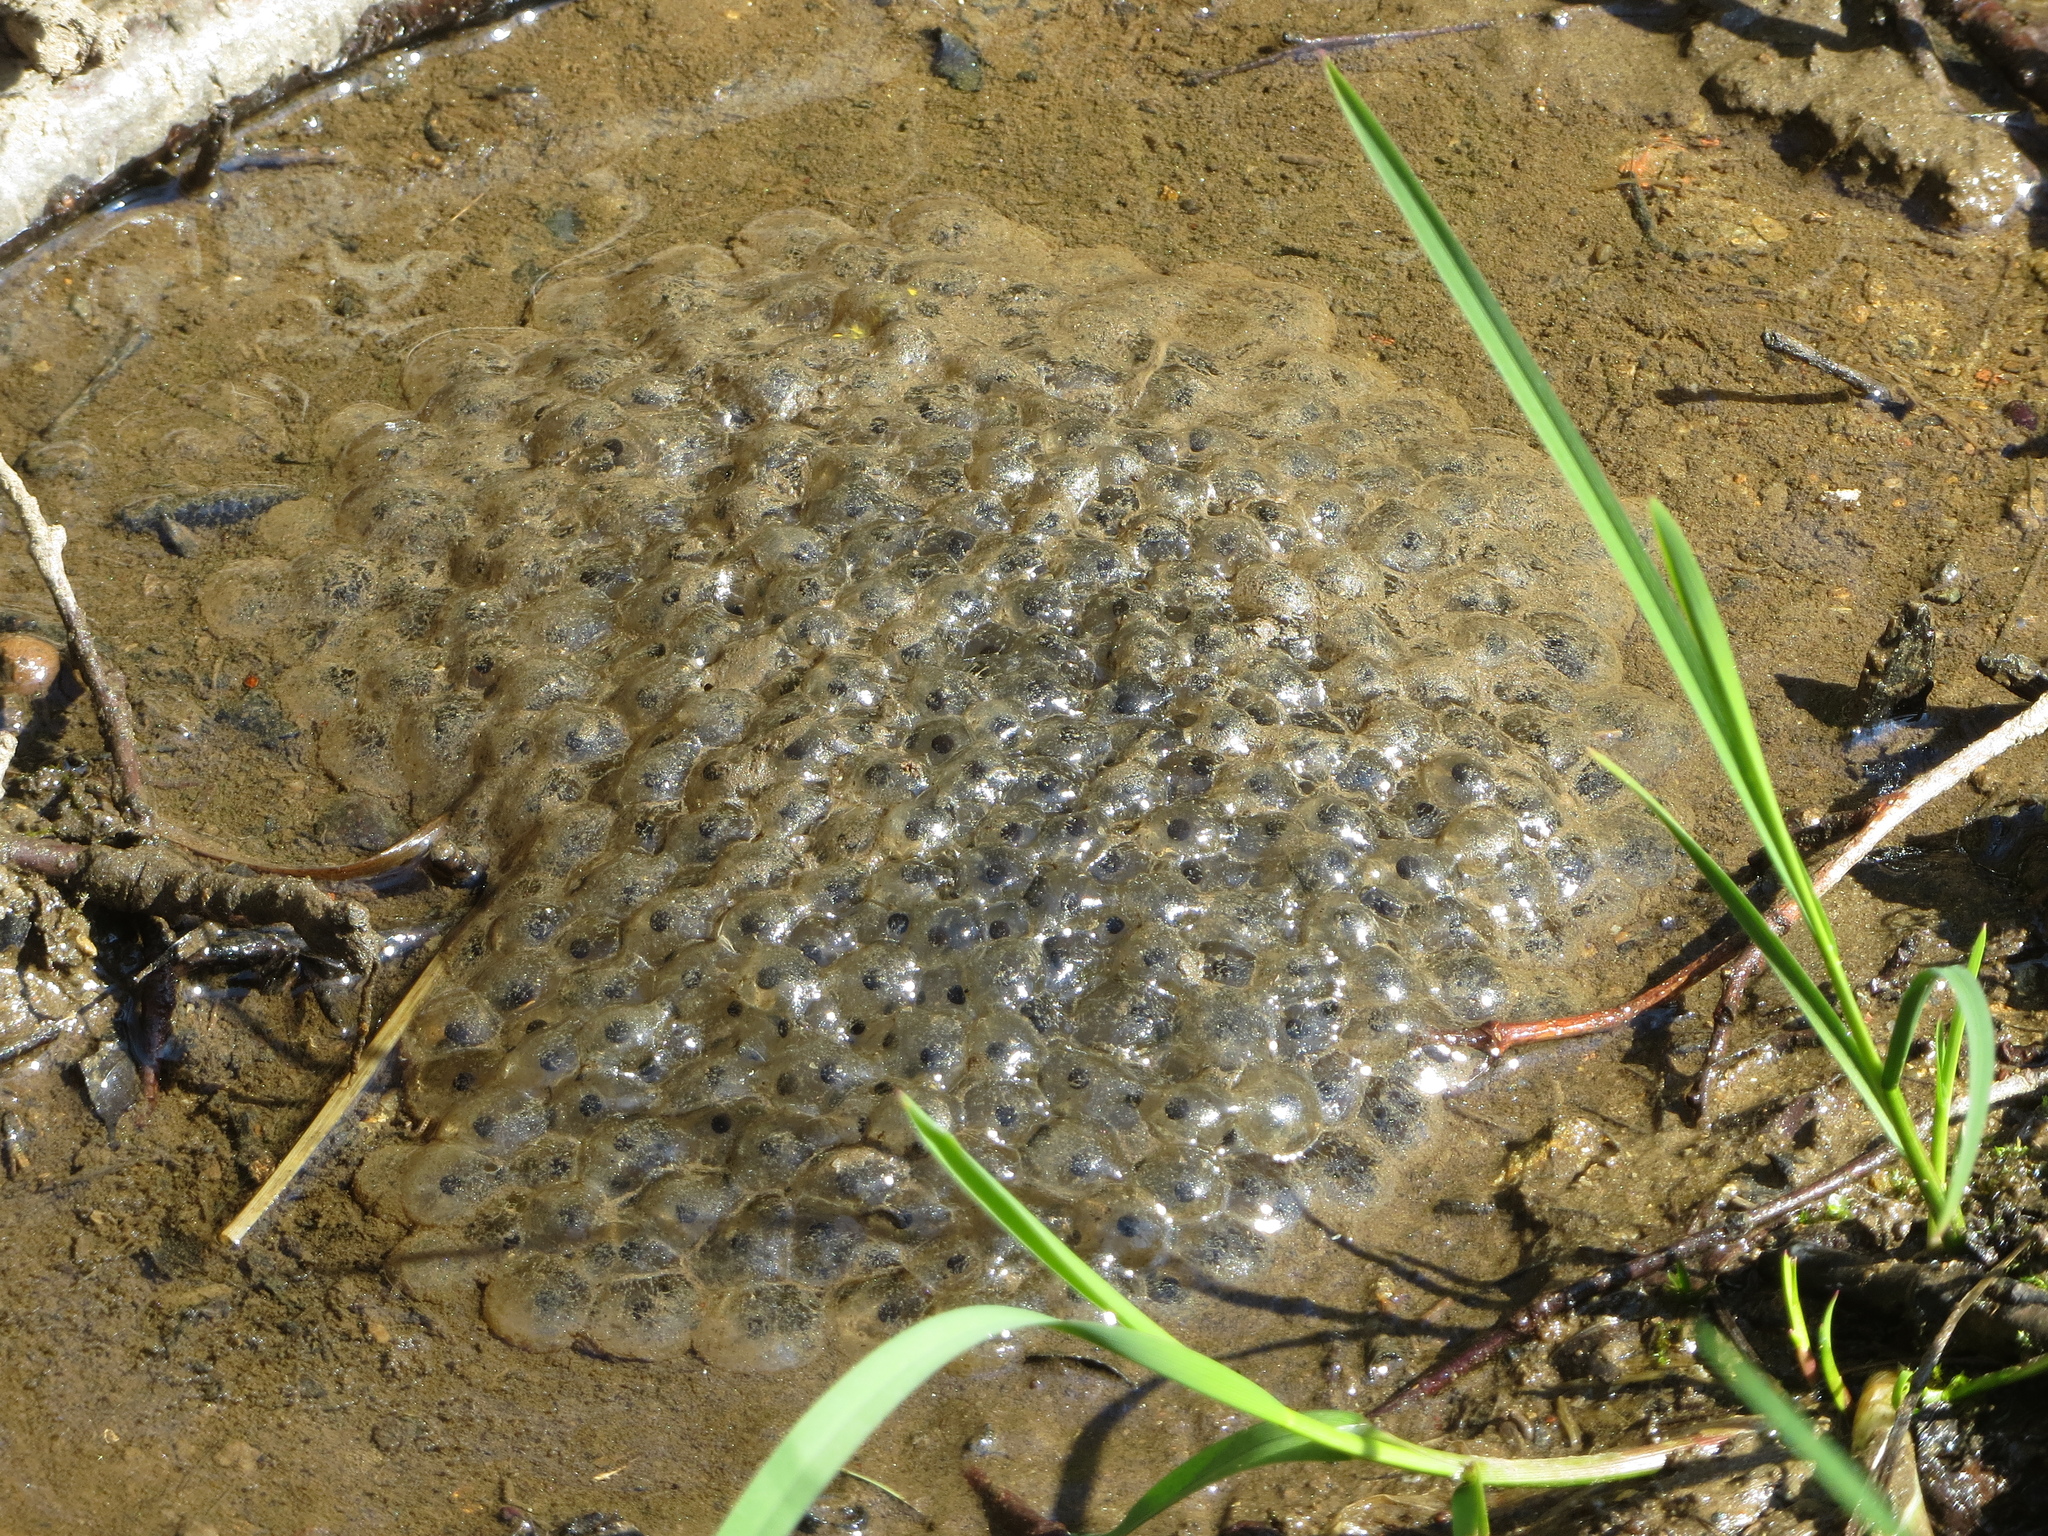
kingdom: Animalia
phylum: Chordata
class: Amphibia
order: Anura
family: Ranidae
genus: Rana
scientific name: Rana temporaria
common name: Common frog
